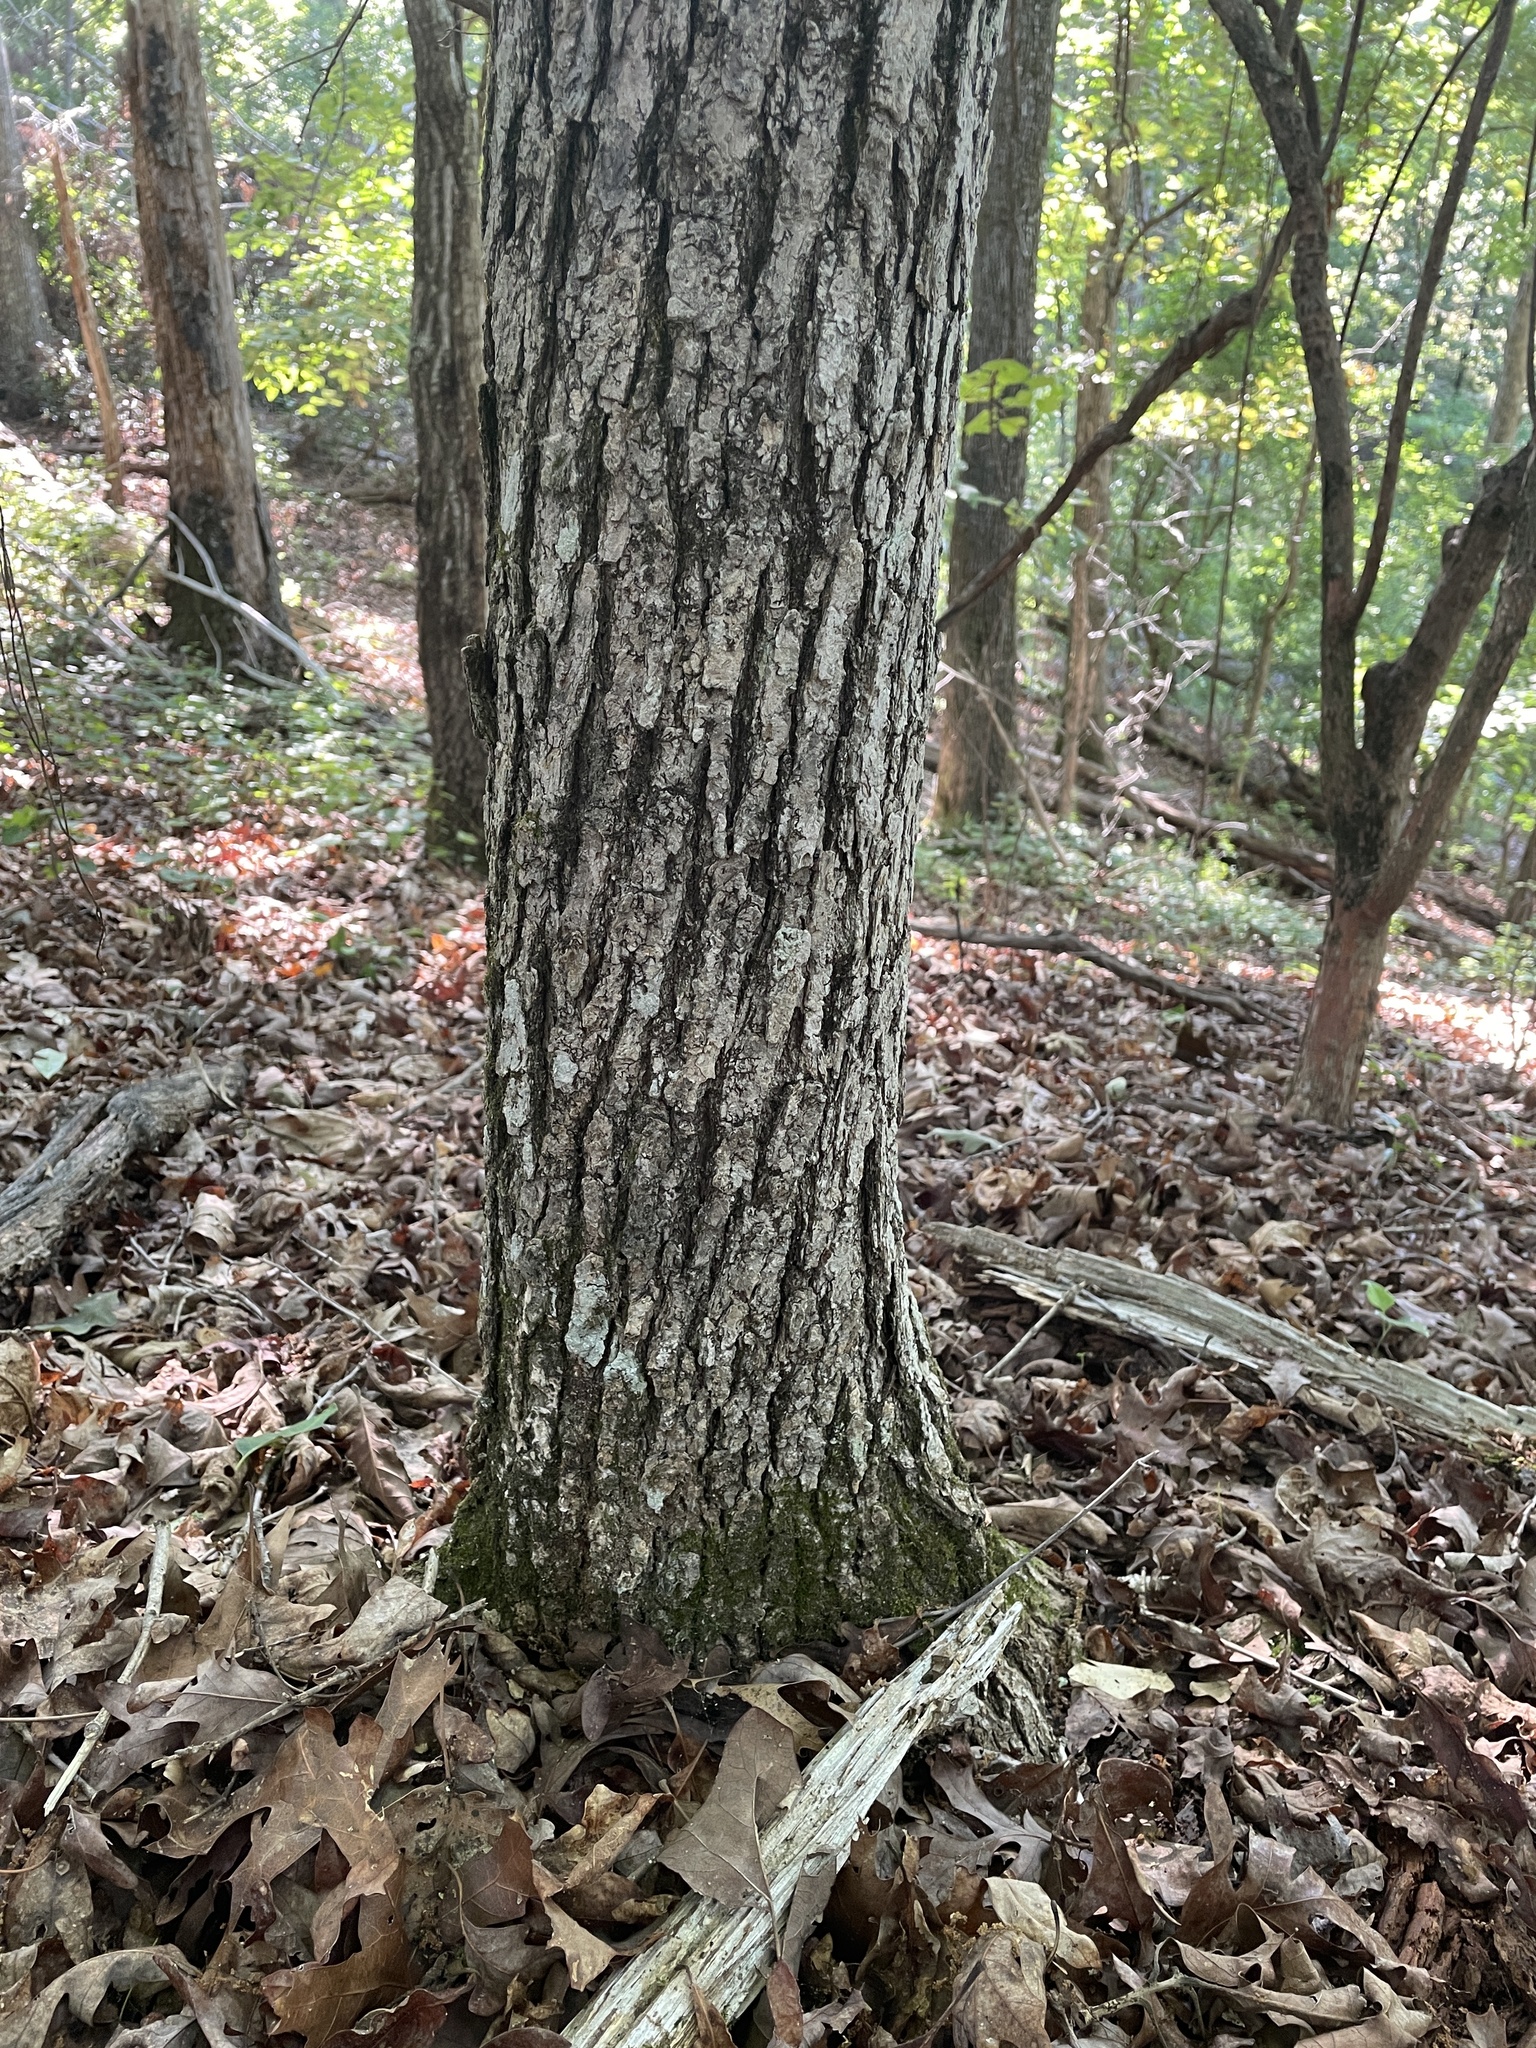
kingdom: Animalia
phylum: Arthropoda
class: Arachnida
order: Trombidiformes
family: Eriophyidae
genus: Cenalox
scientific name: Cenalox
